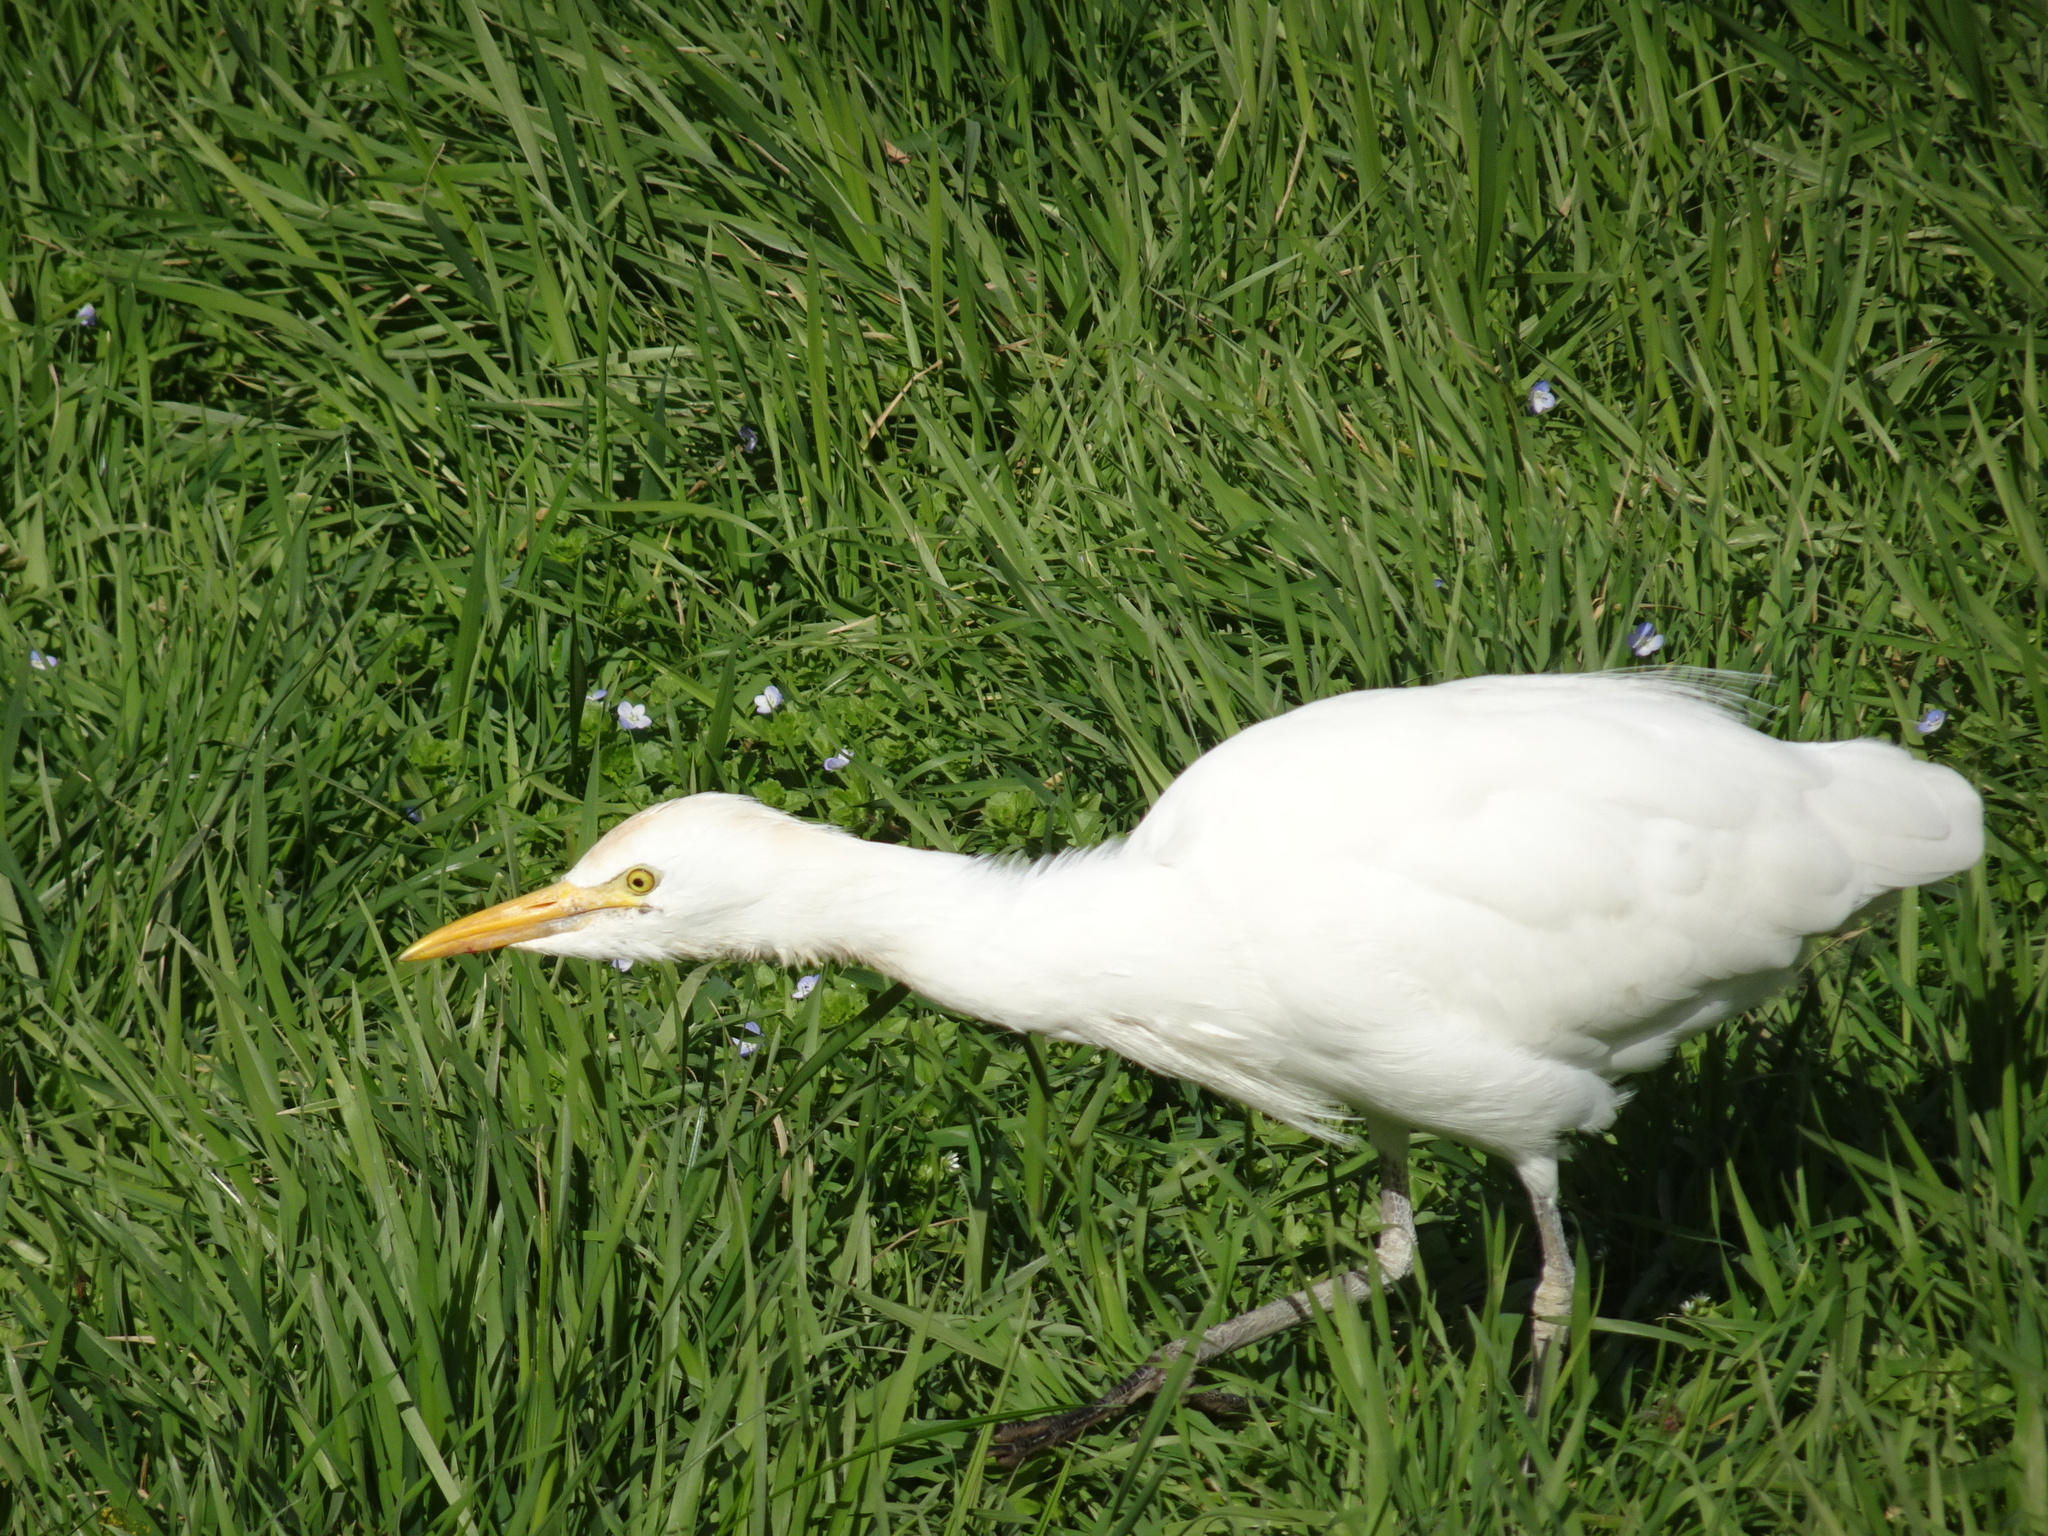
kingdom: Animalia
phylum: Chordata
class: Aves
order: Pelecaniformes
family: Ardeidae
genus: Bubulcus
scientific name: Bubulcus ibis
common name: Cattle egret
